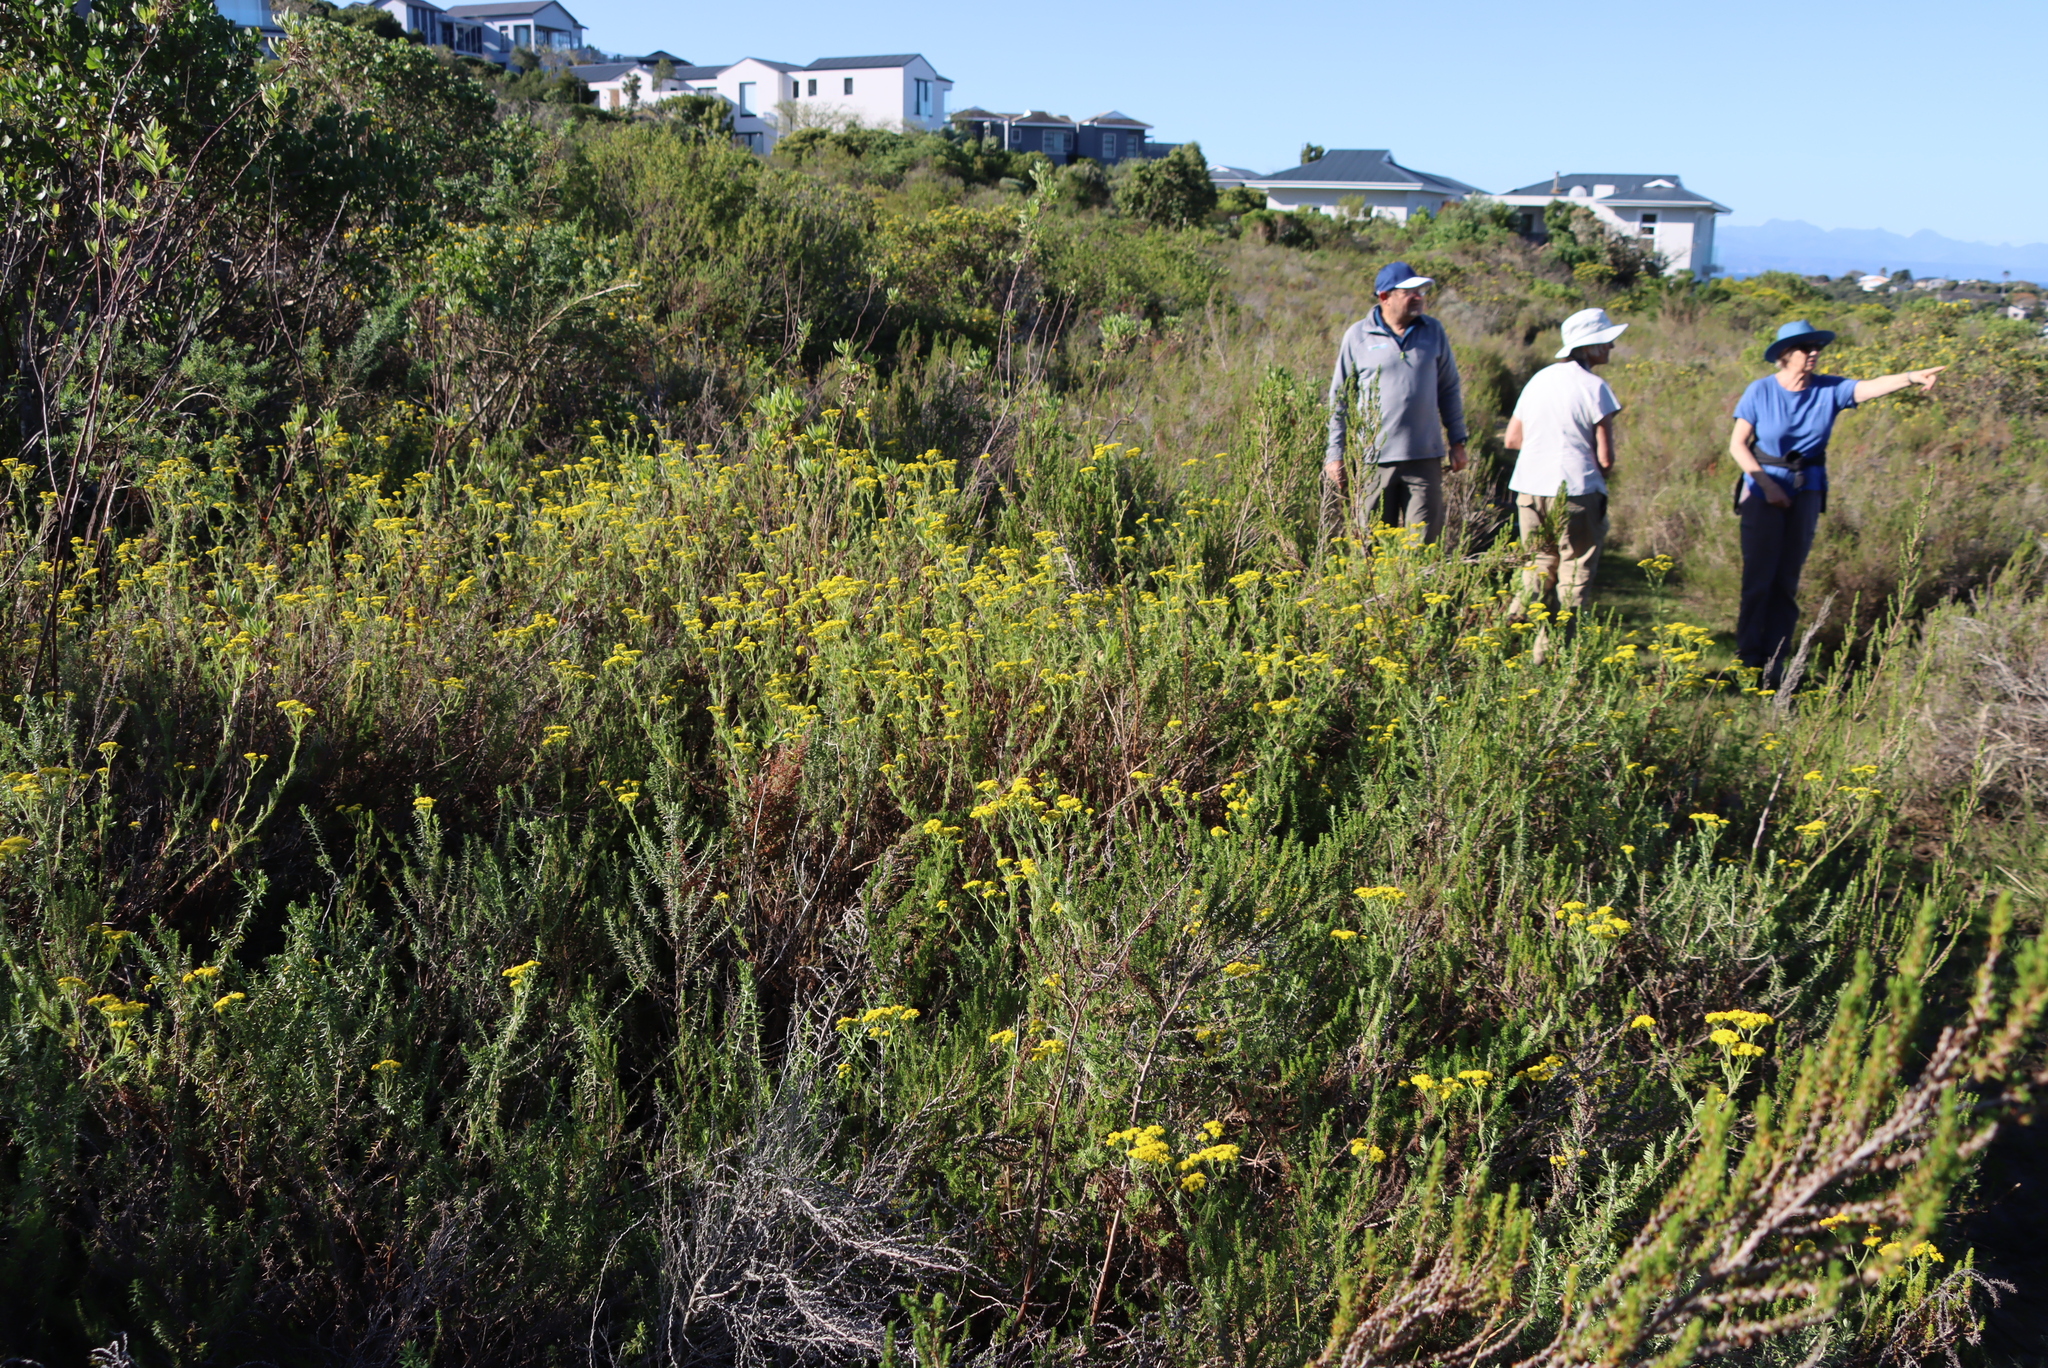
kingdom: Plantae
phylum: Tracheophyta
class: Magnoliopsida
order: Asterales
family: Asteraceae
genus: Hippia
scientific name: Hippia frutescens
